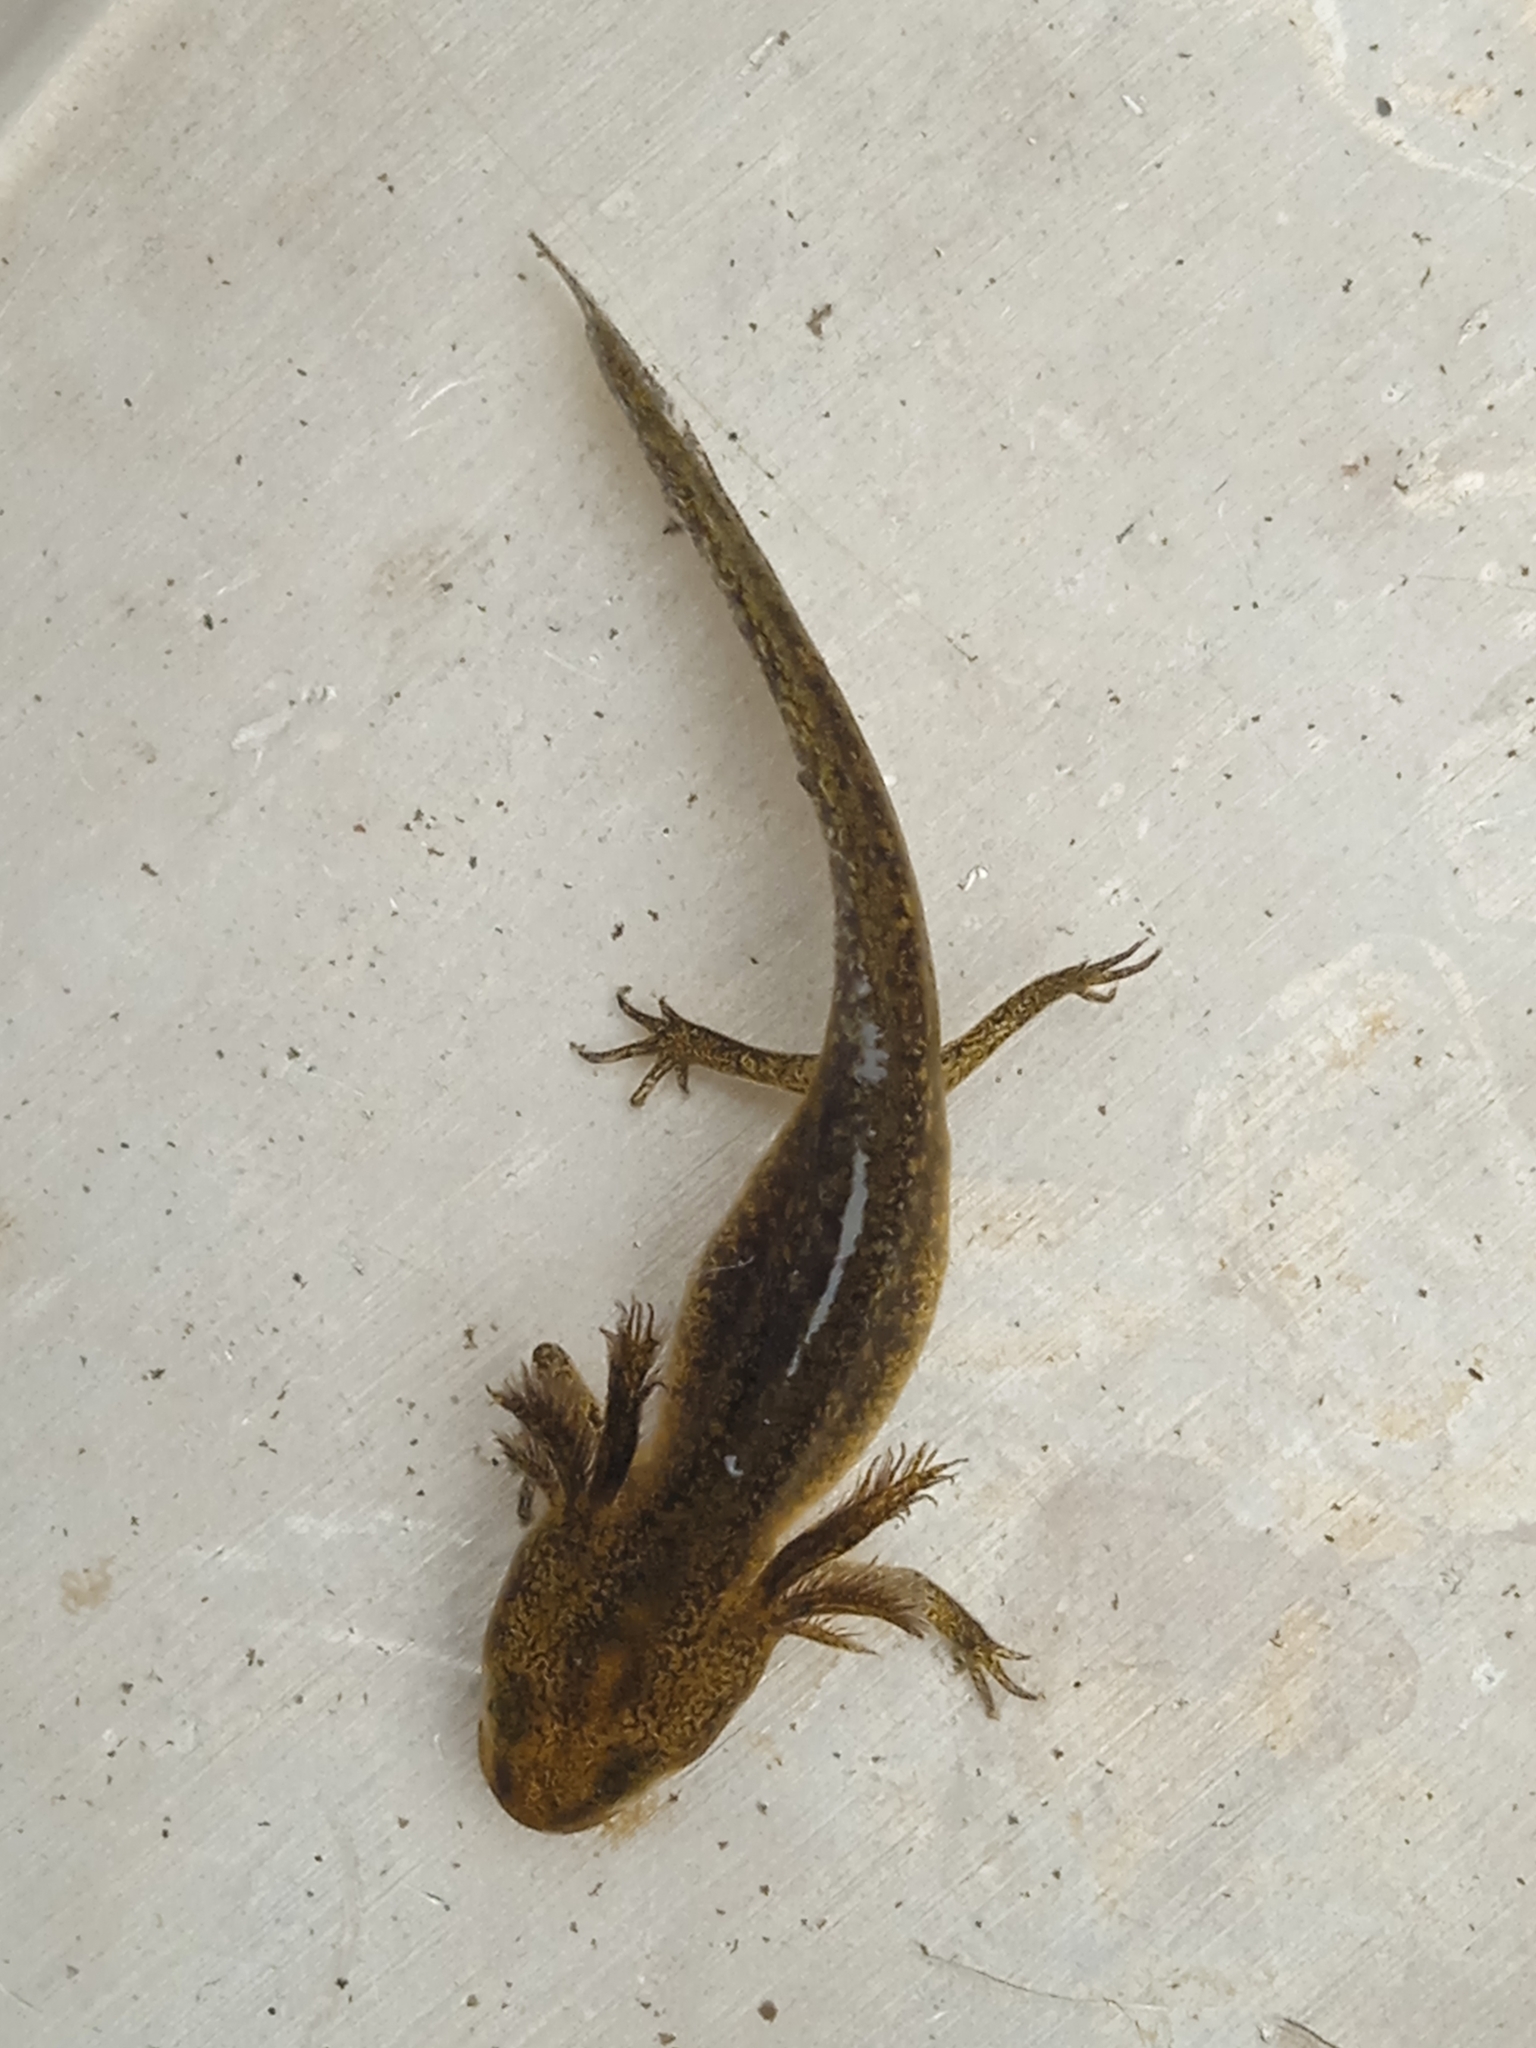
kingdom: Animalia
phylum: Chordata
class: Amphibia
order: Caudata
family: Salamandridae
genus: Lissotriton
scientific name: Lissotriton vulgaris
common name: Smooth newt
